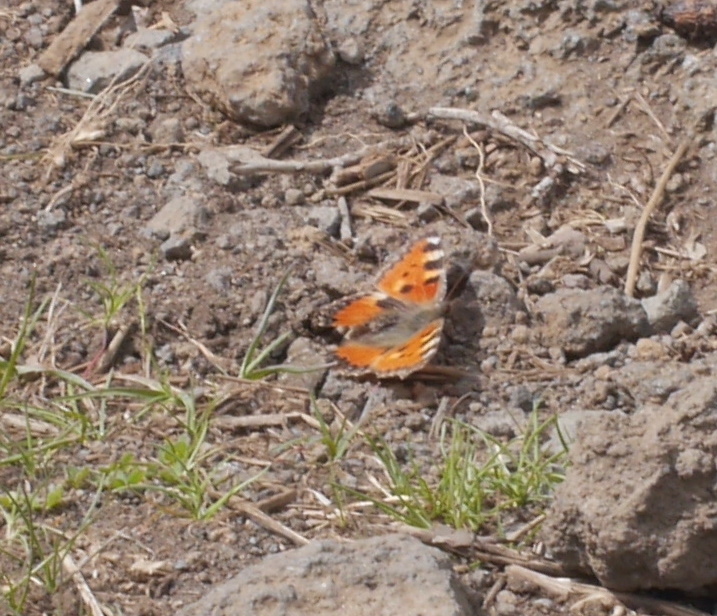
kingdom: Animalia
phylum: Arthropoda
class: Insecta
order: Lepidoptera
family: Nymphalidae
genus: Aglais
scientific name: Aglais urticae
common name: Small tortoiseshell
